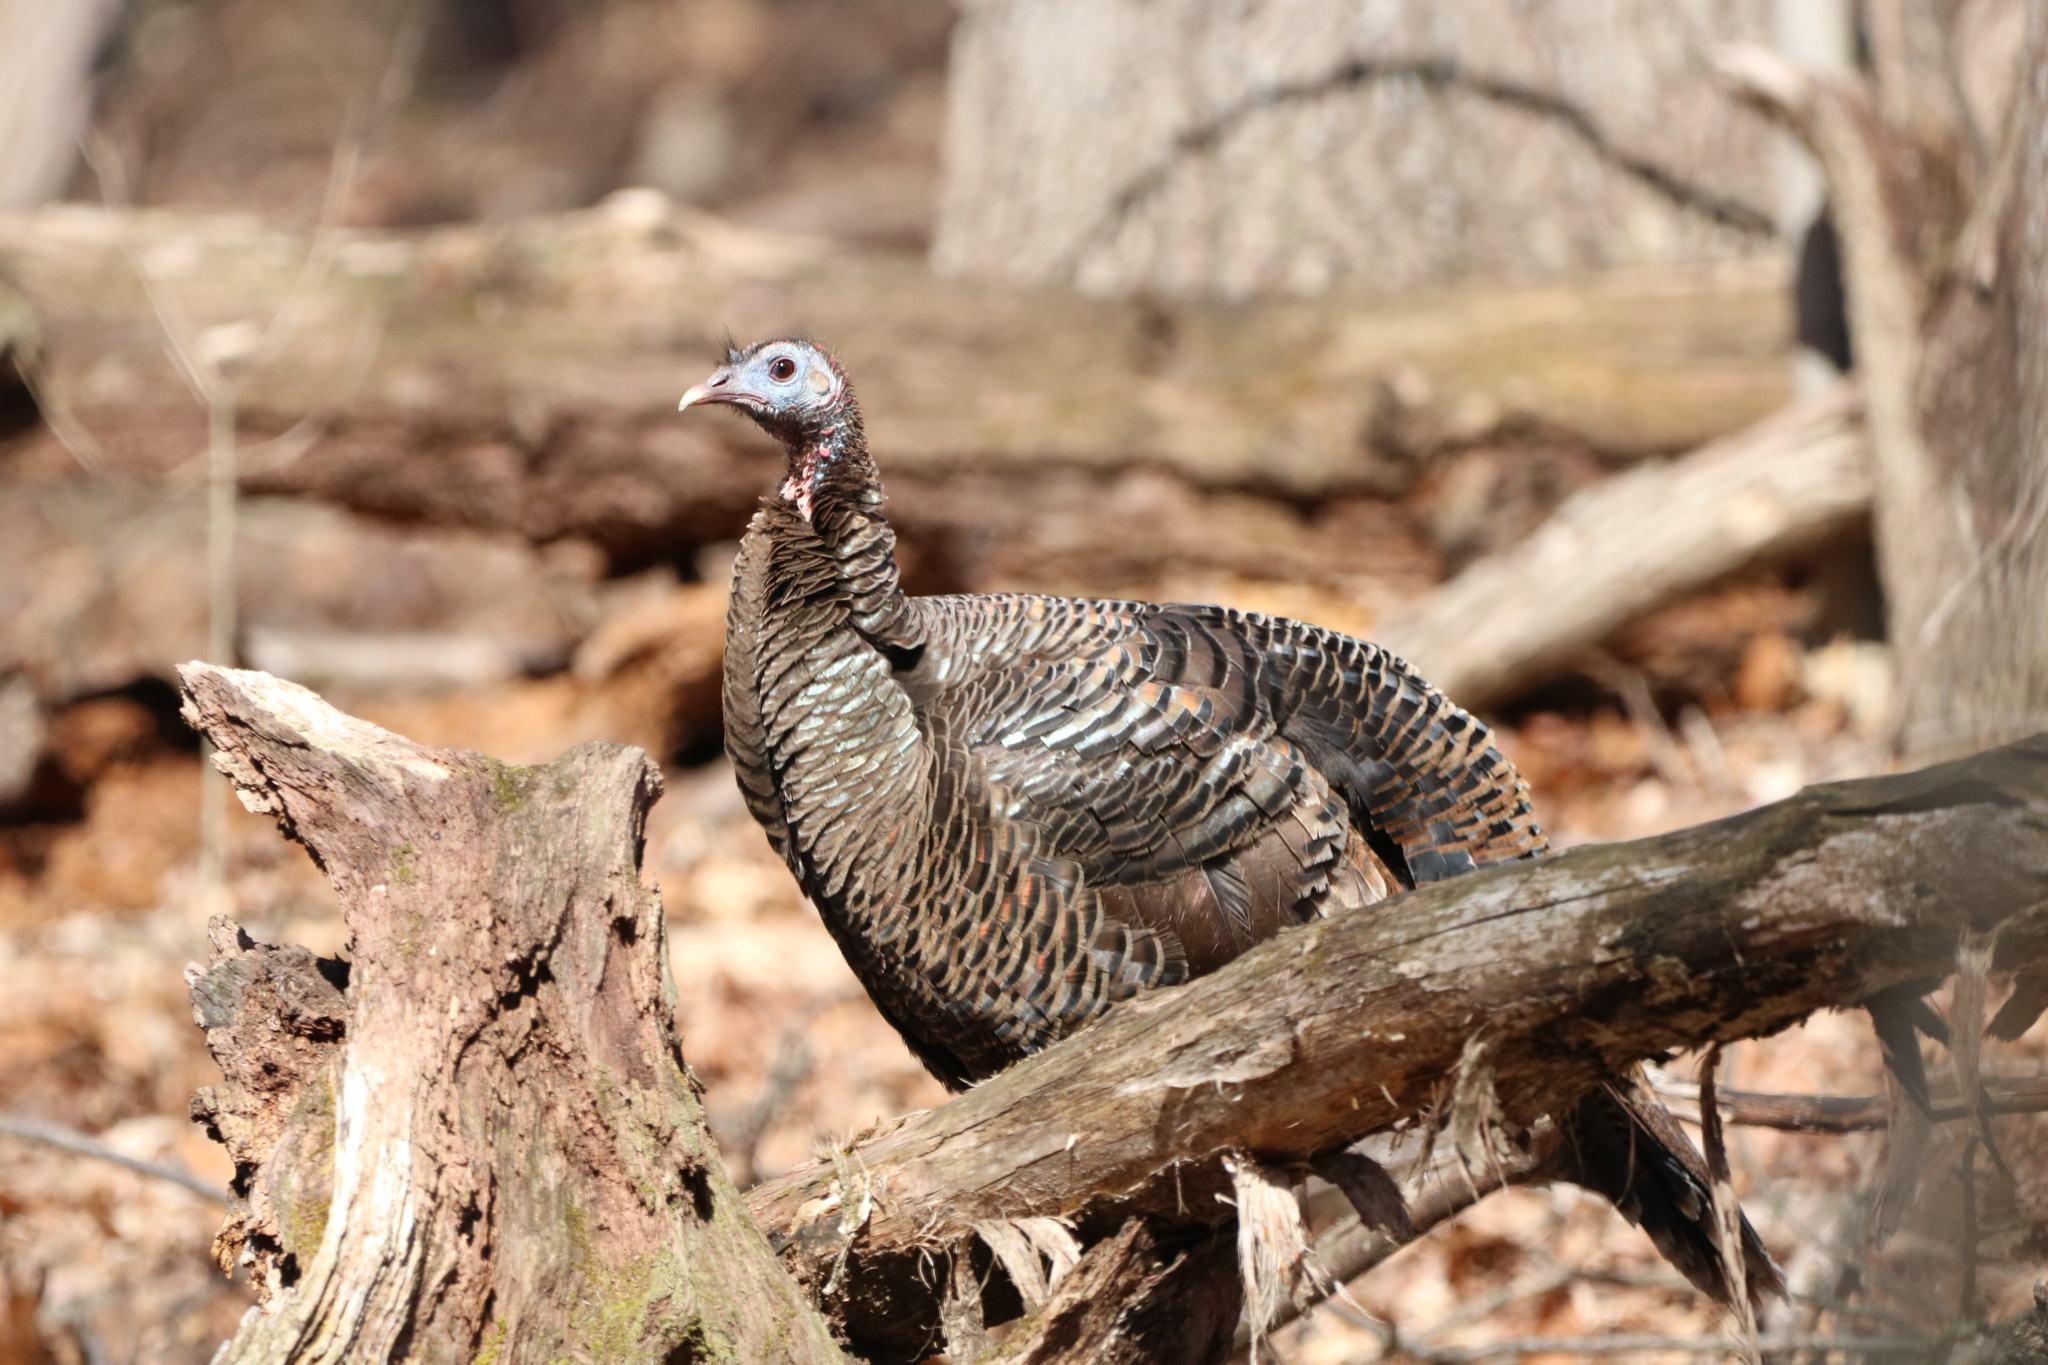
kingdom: Animalia
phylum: Chordata
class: Aves
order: Galliformes
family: Phasianidae
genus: Meleagris
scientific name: Meleagris gallopavo
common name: Wild turkey
